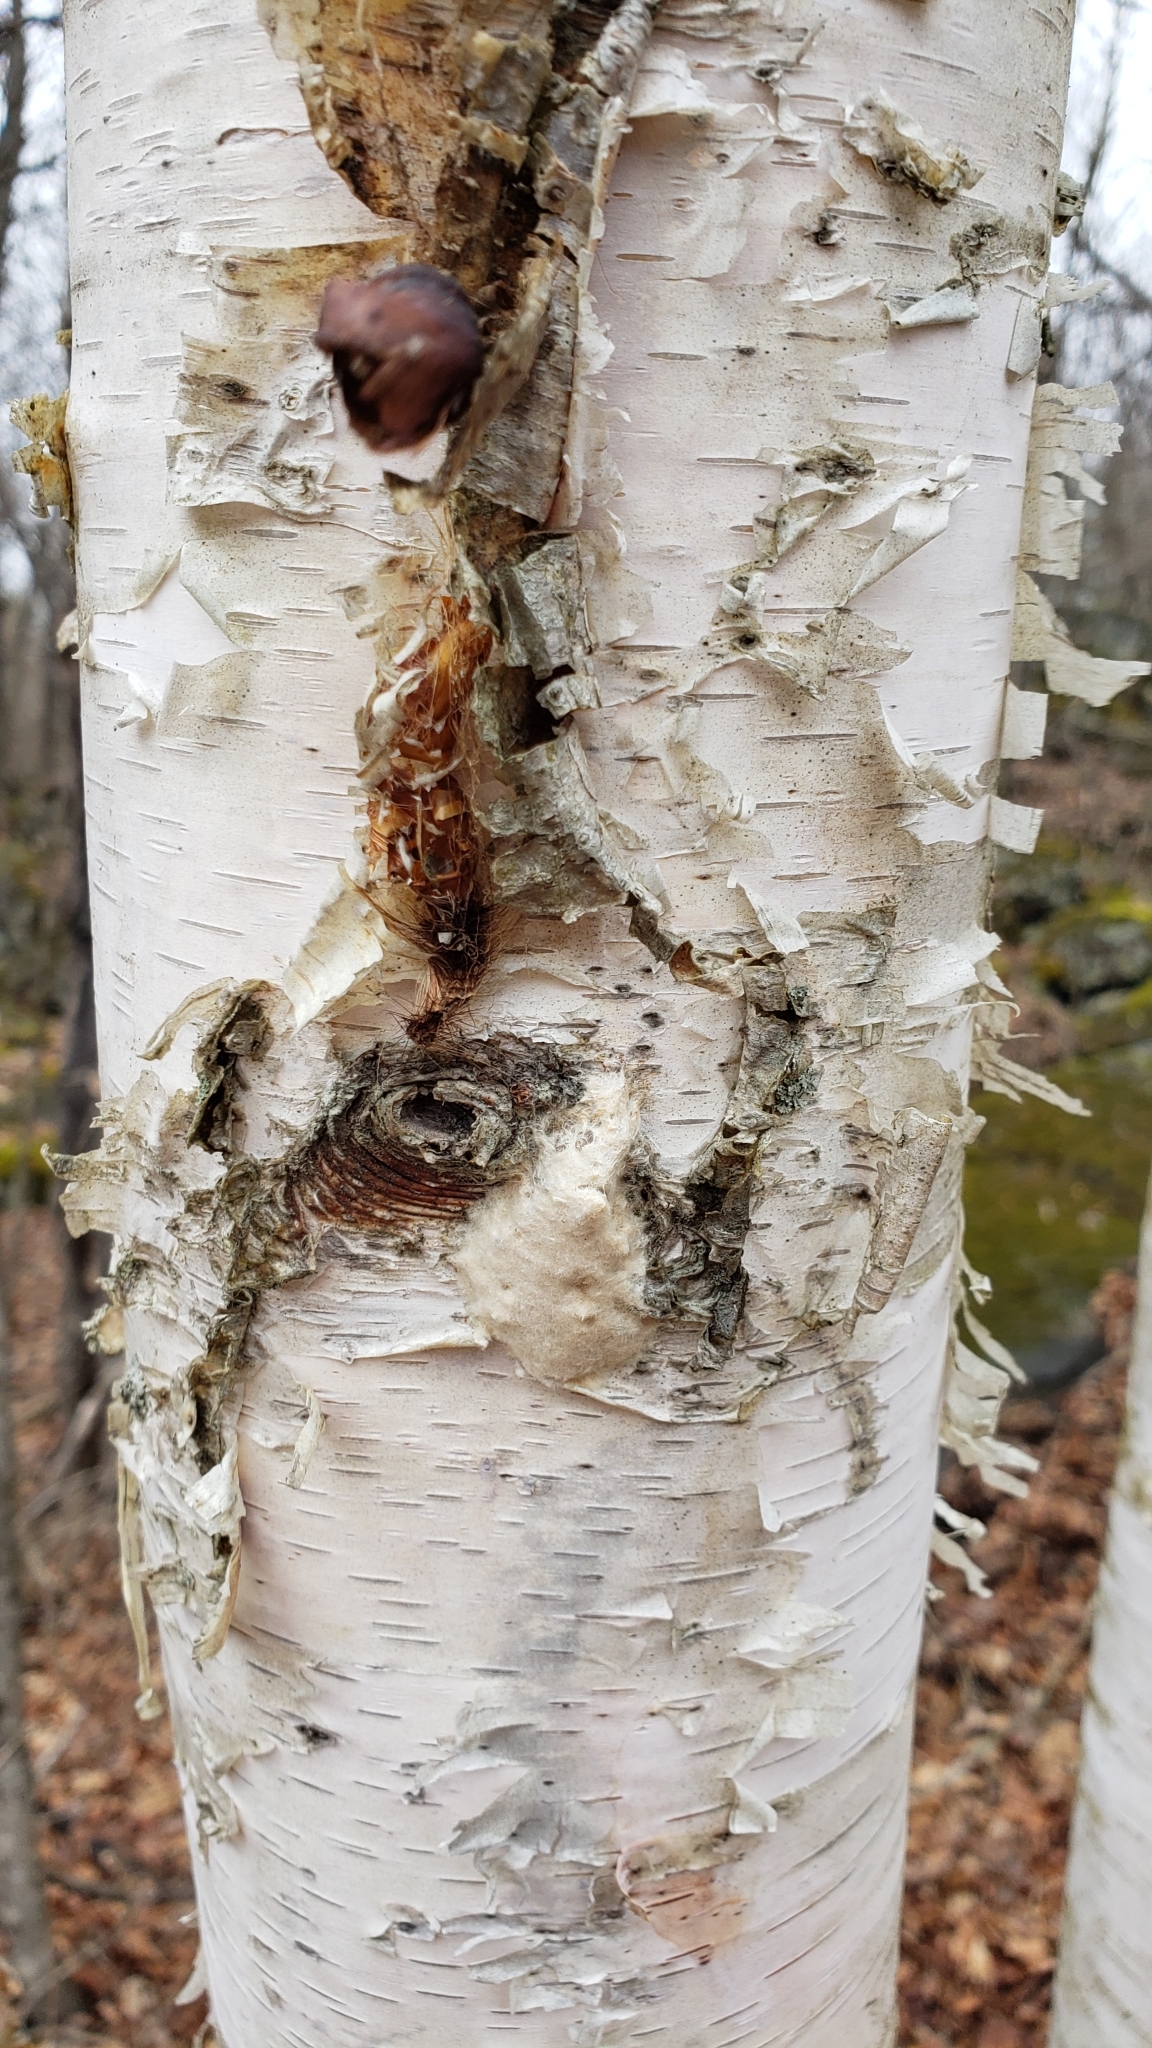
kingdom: Animalia
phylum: Arthropoda
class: Insecta
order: Lepidoptera
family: Erebidae
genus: Lymantria
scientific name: Lymantria dispar
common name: Gypsy moth
